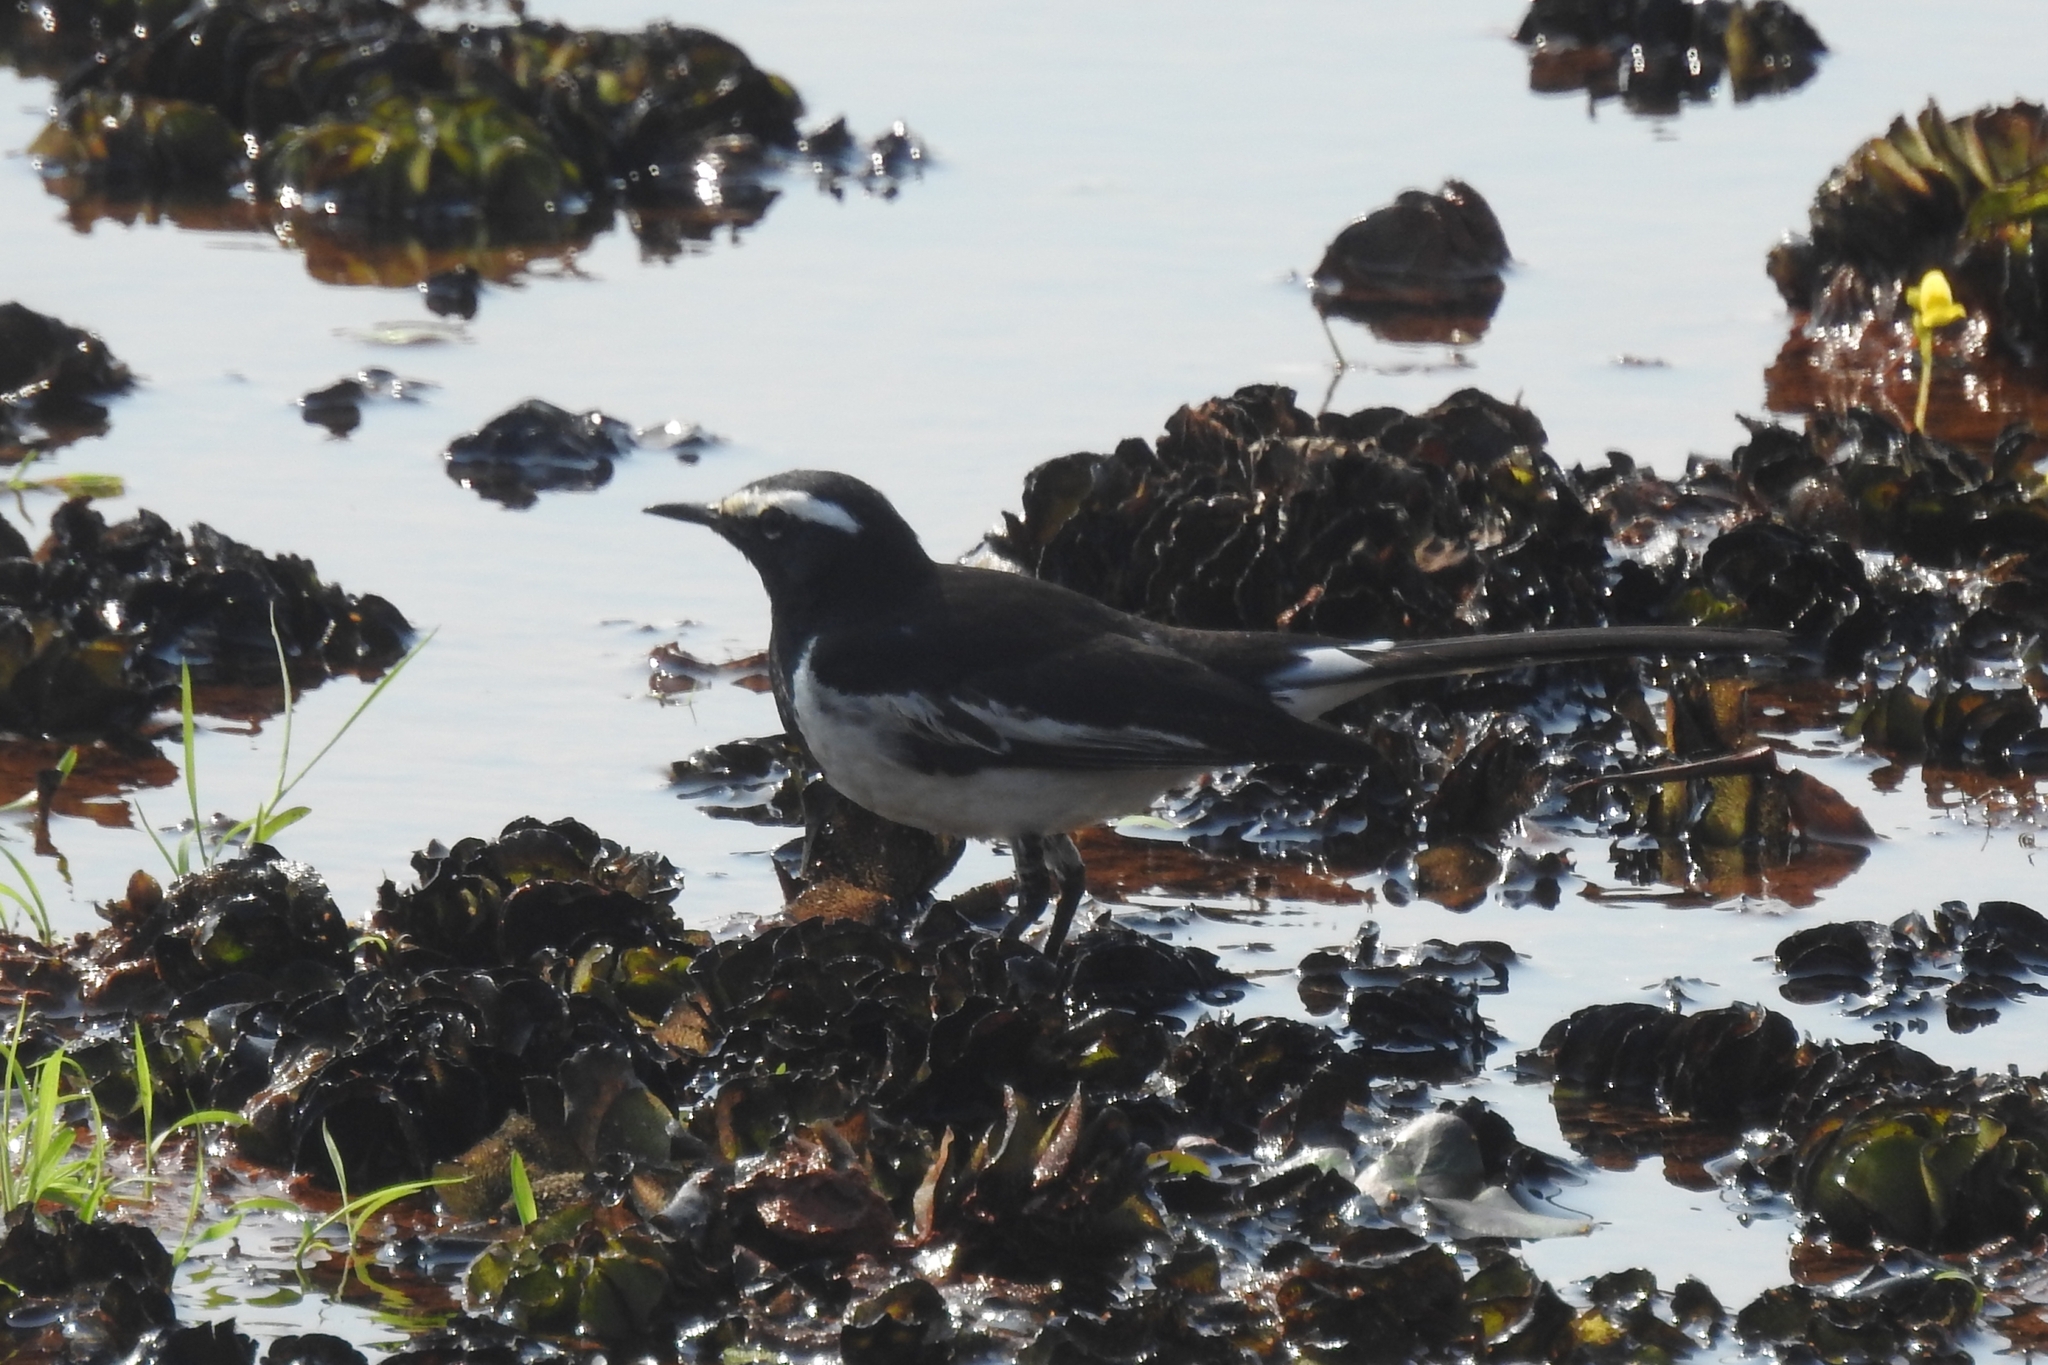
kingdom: Animalia
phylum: Chordata
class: Aves
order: Passeriformes
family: Motacillidae
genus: Motacilla
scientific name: Motacilla maderaspatensis
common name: White-browed wagtail
